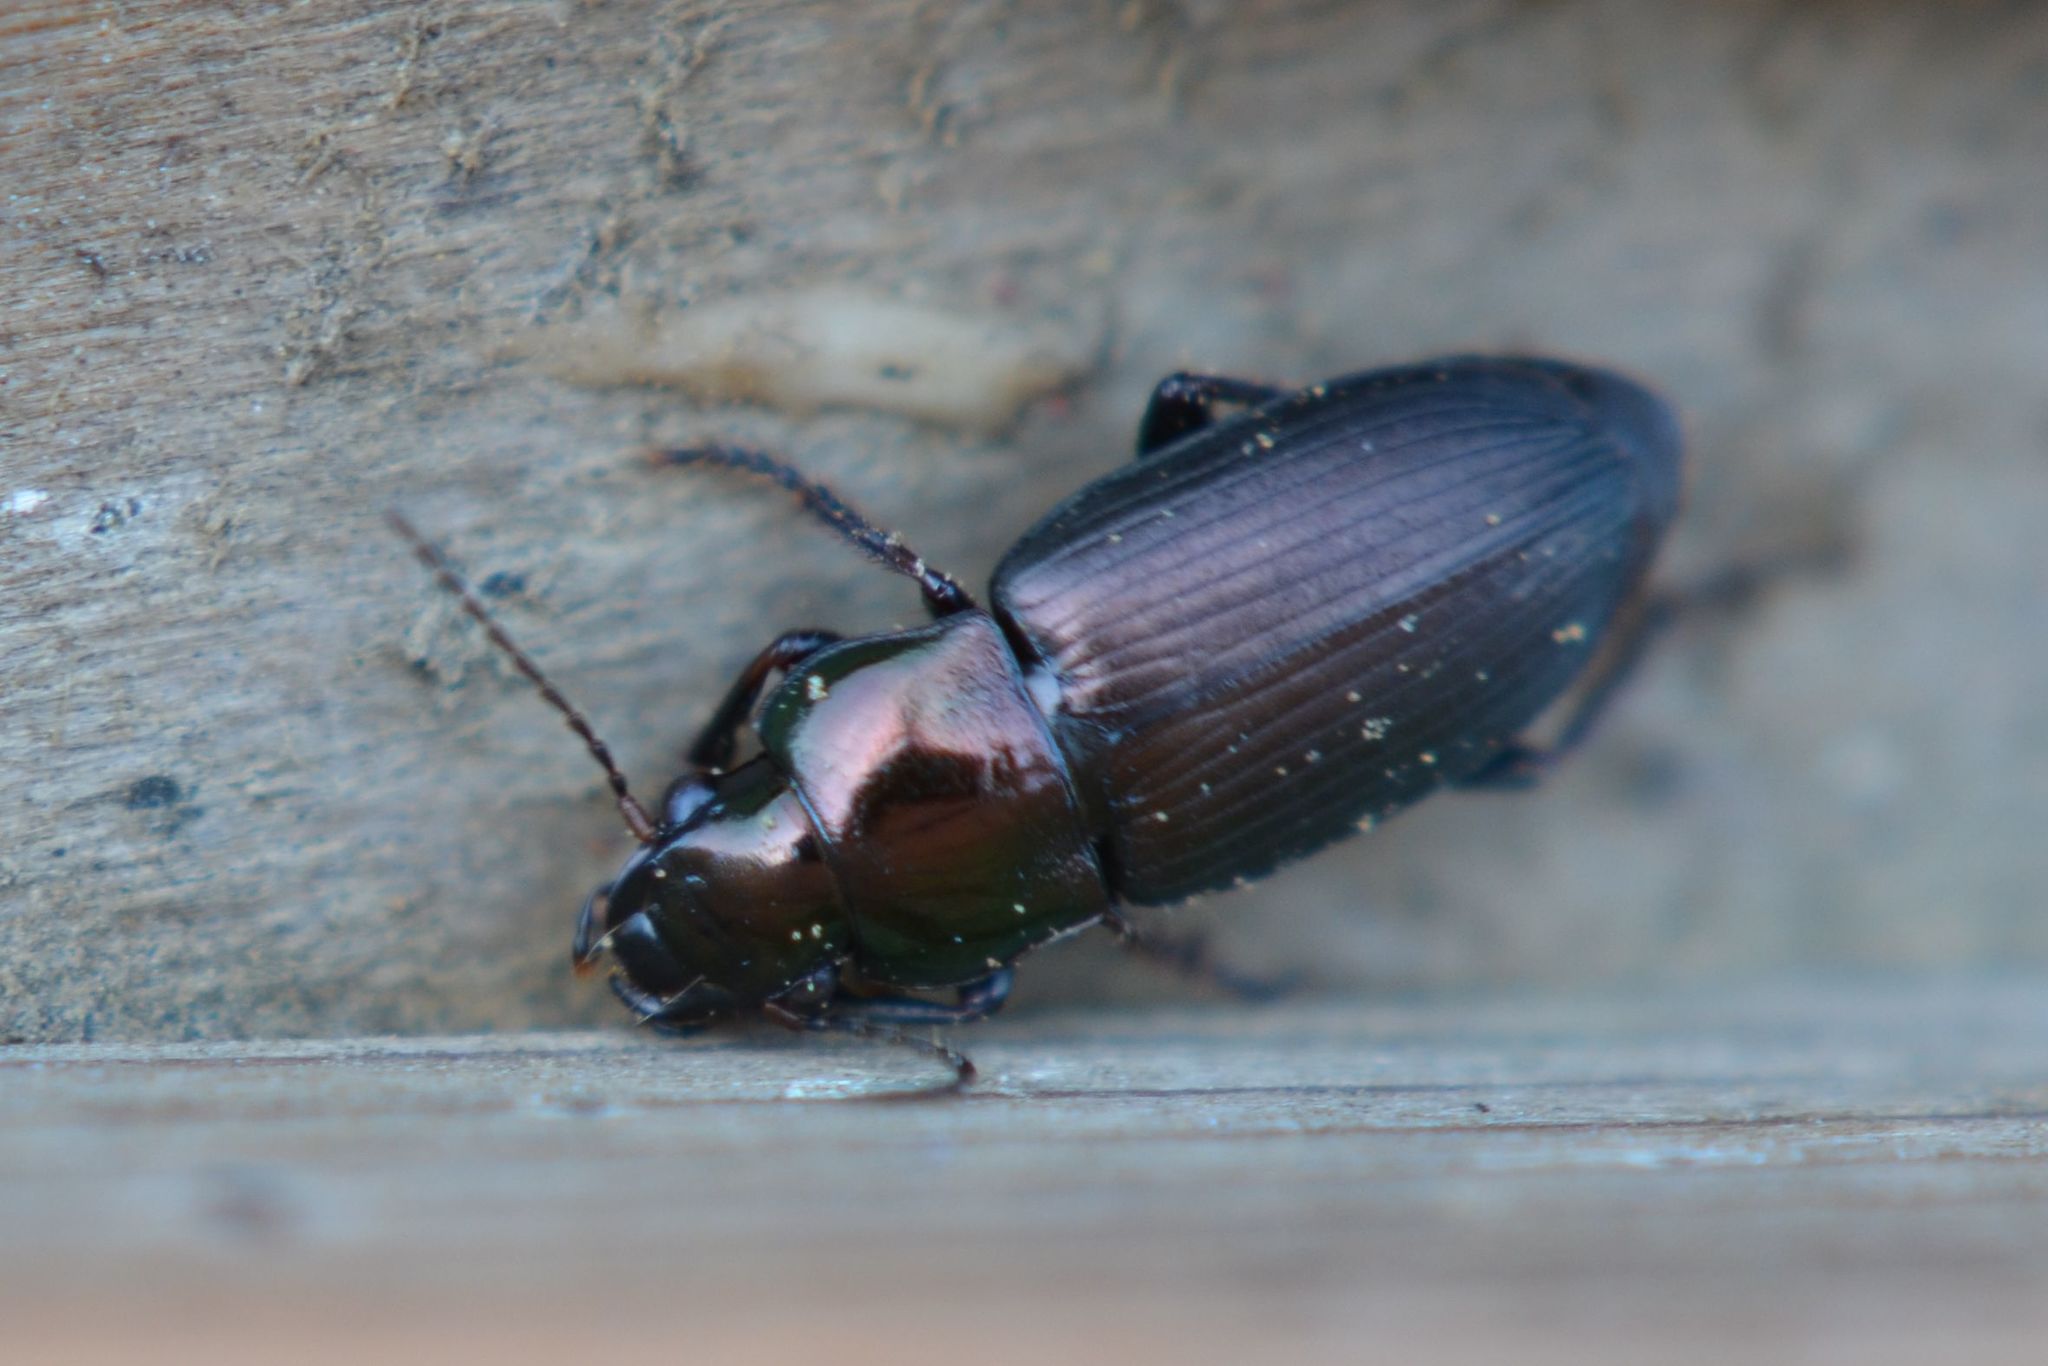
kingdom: Animalia
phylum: Arthropoda
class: Insecta
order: Coleoptera
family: Carabidae
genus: Harpalus
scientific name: Harpalus distinguendus
